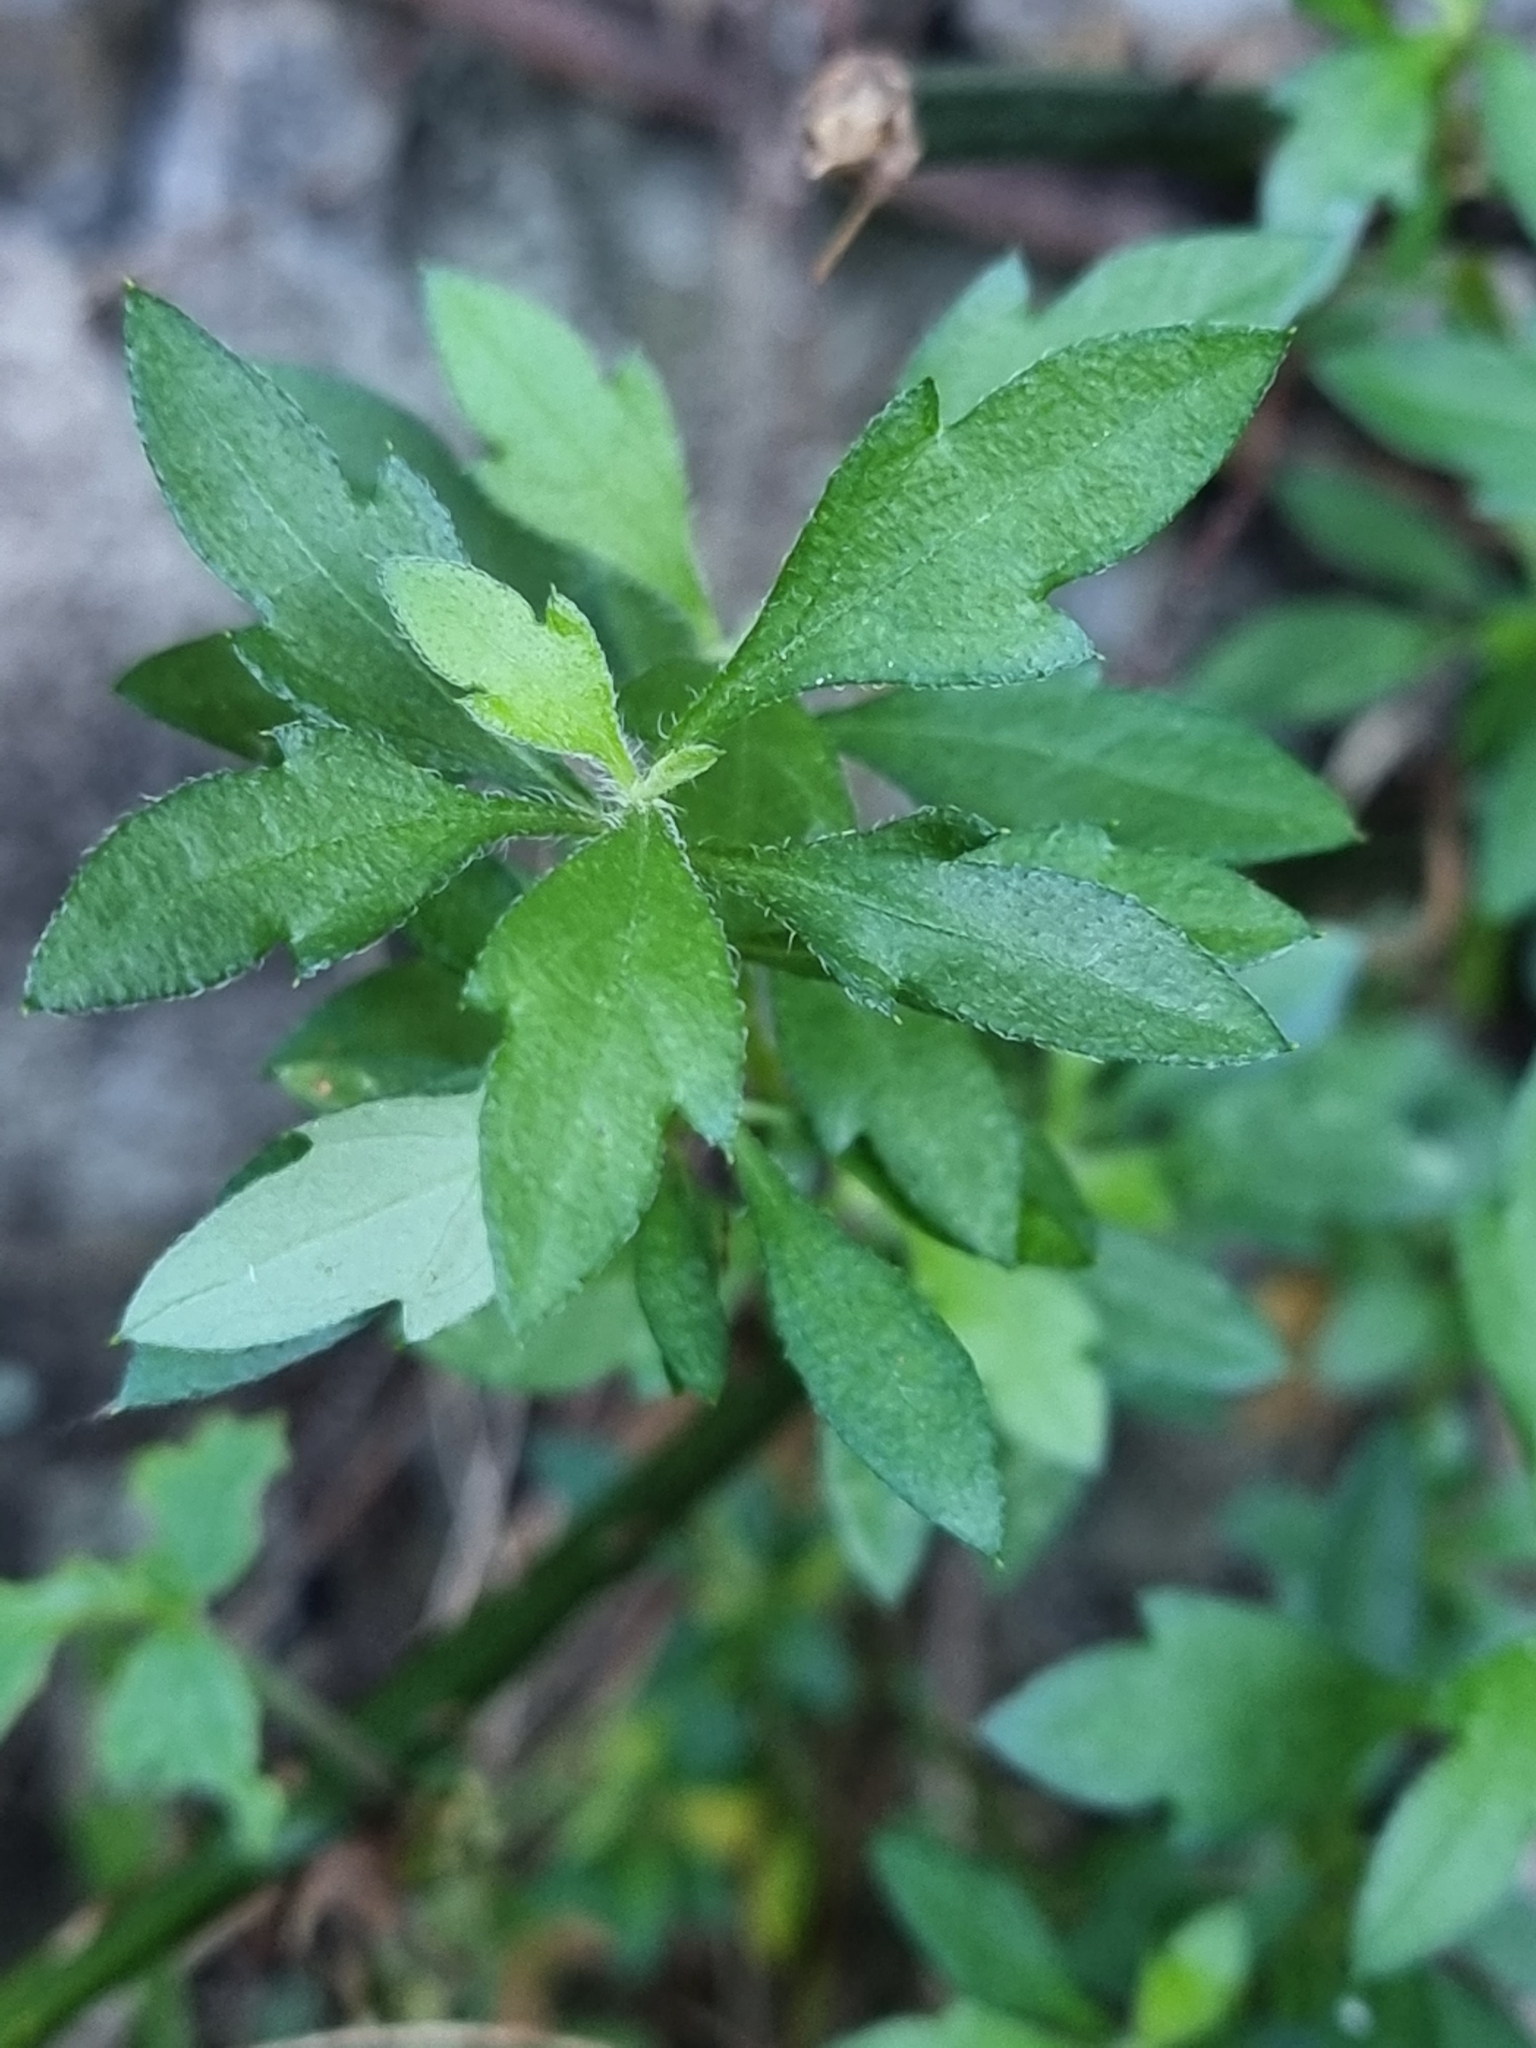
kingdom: Plantae
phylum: Tracheophyta
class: Magnoliopsida
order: Asterales
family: Asteraceae
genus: Erigeron
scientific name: Erigeron karvinskianus
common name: Mexican fleabane
